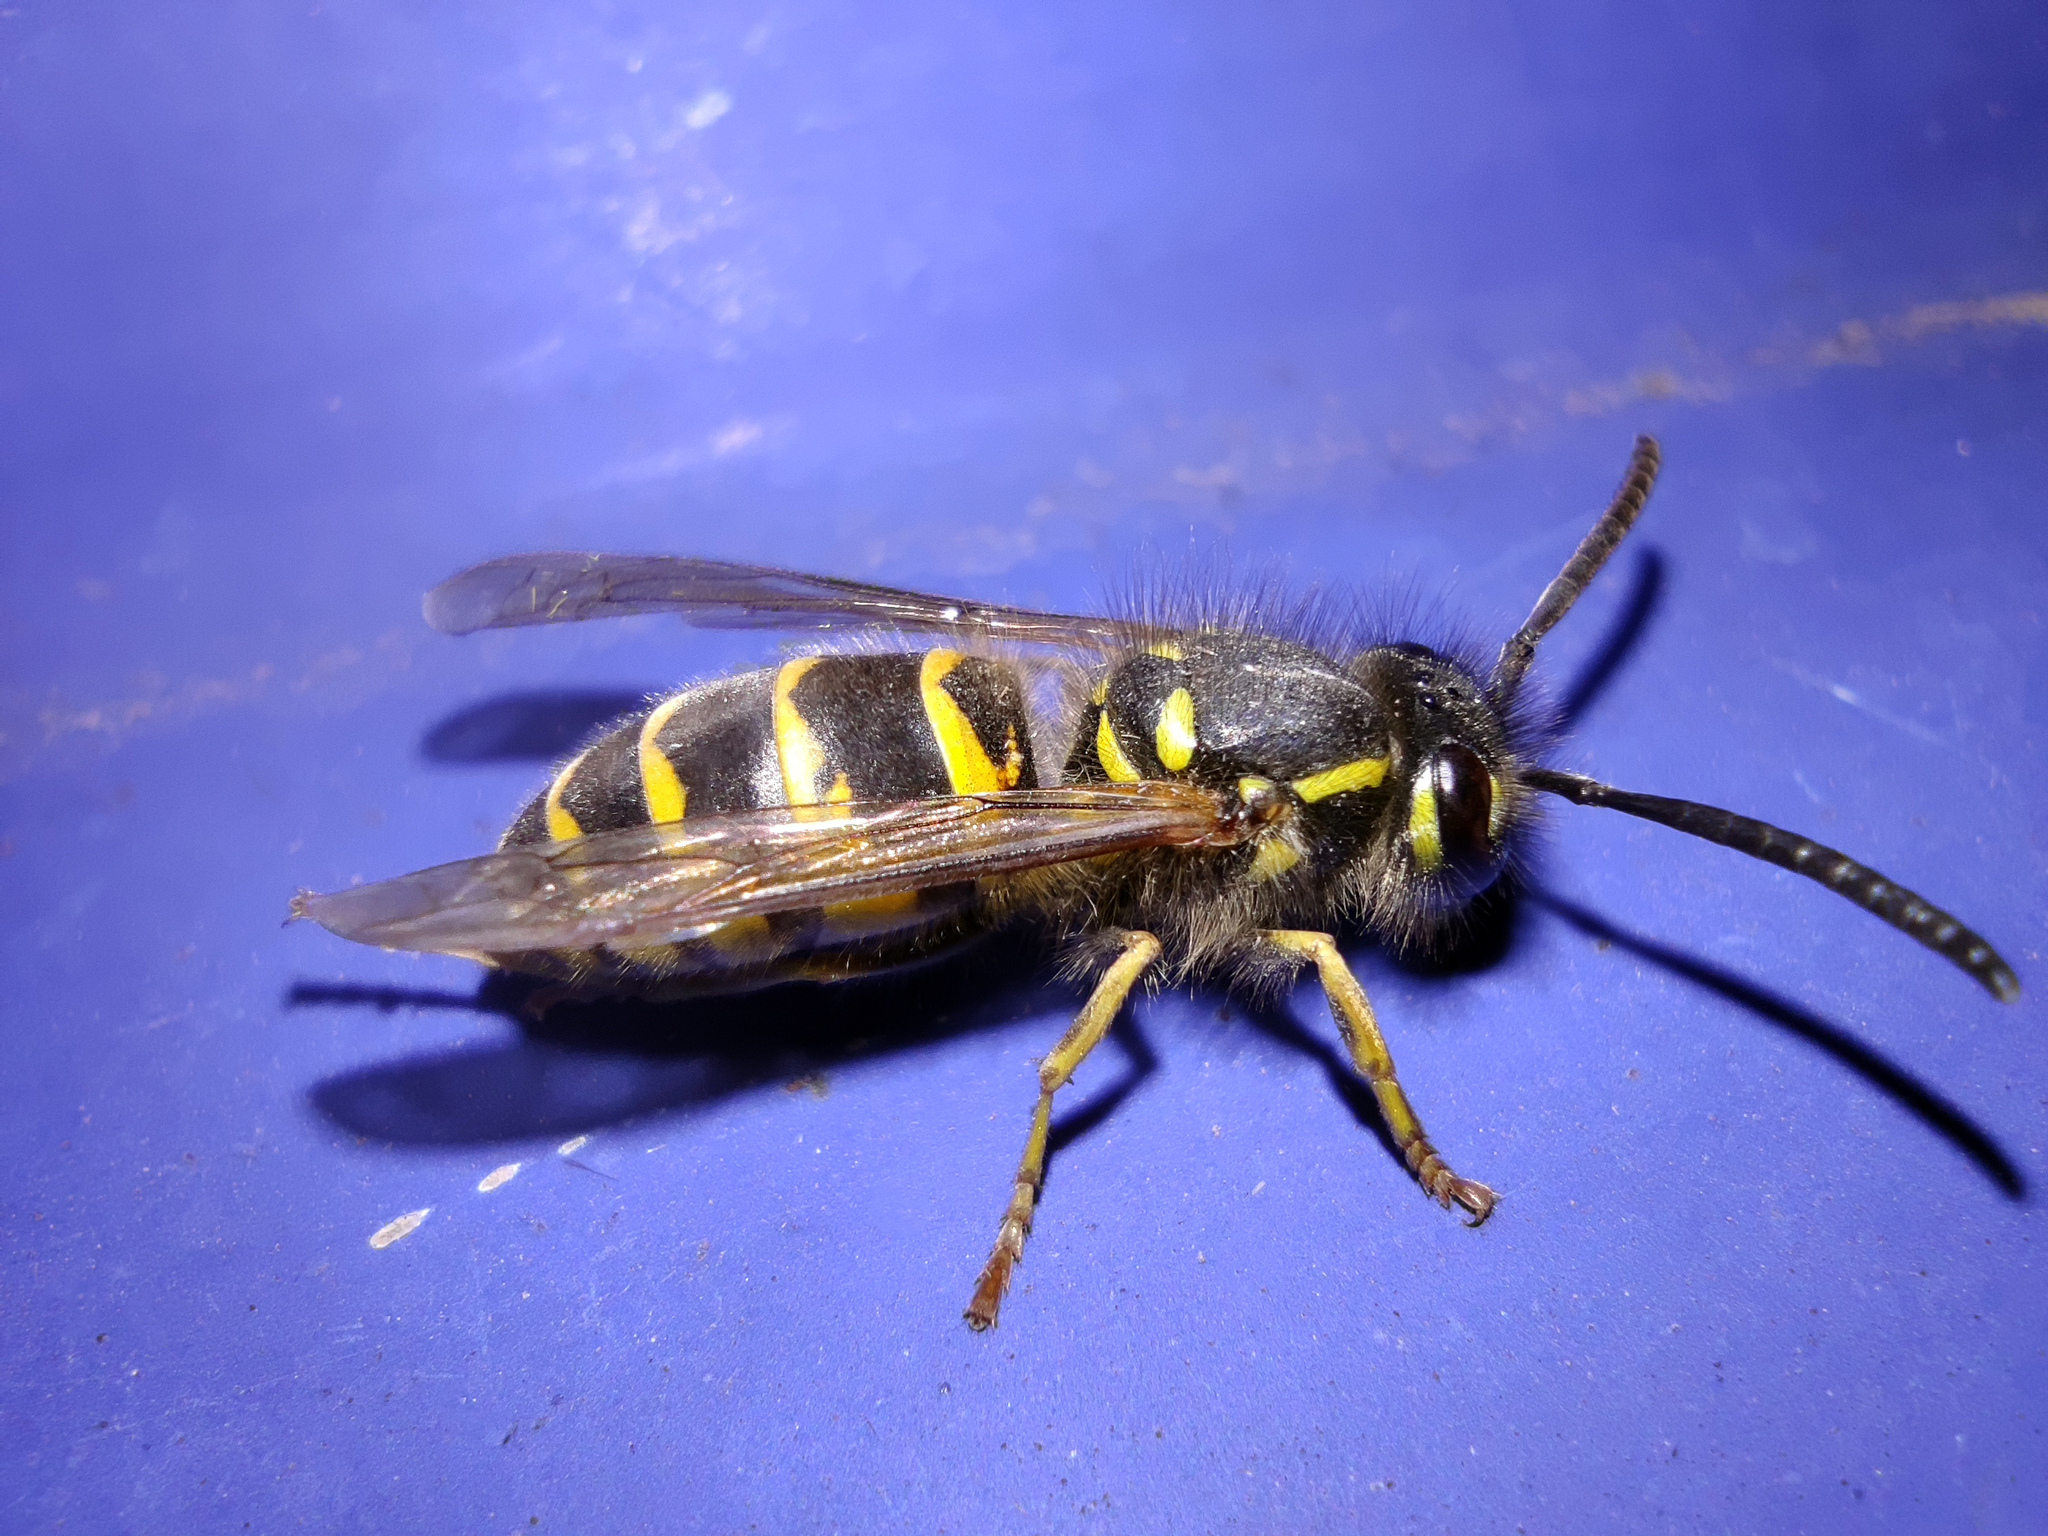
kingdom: Animalia
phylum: Arthropoda
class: Insecta
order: Hymenoptera
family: Vespidae
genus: Vespula
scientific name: Vespula vulgaris
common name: Common wasp
